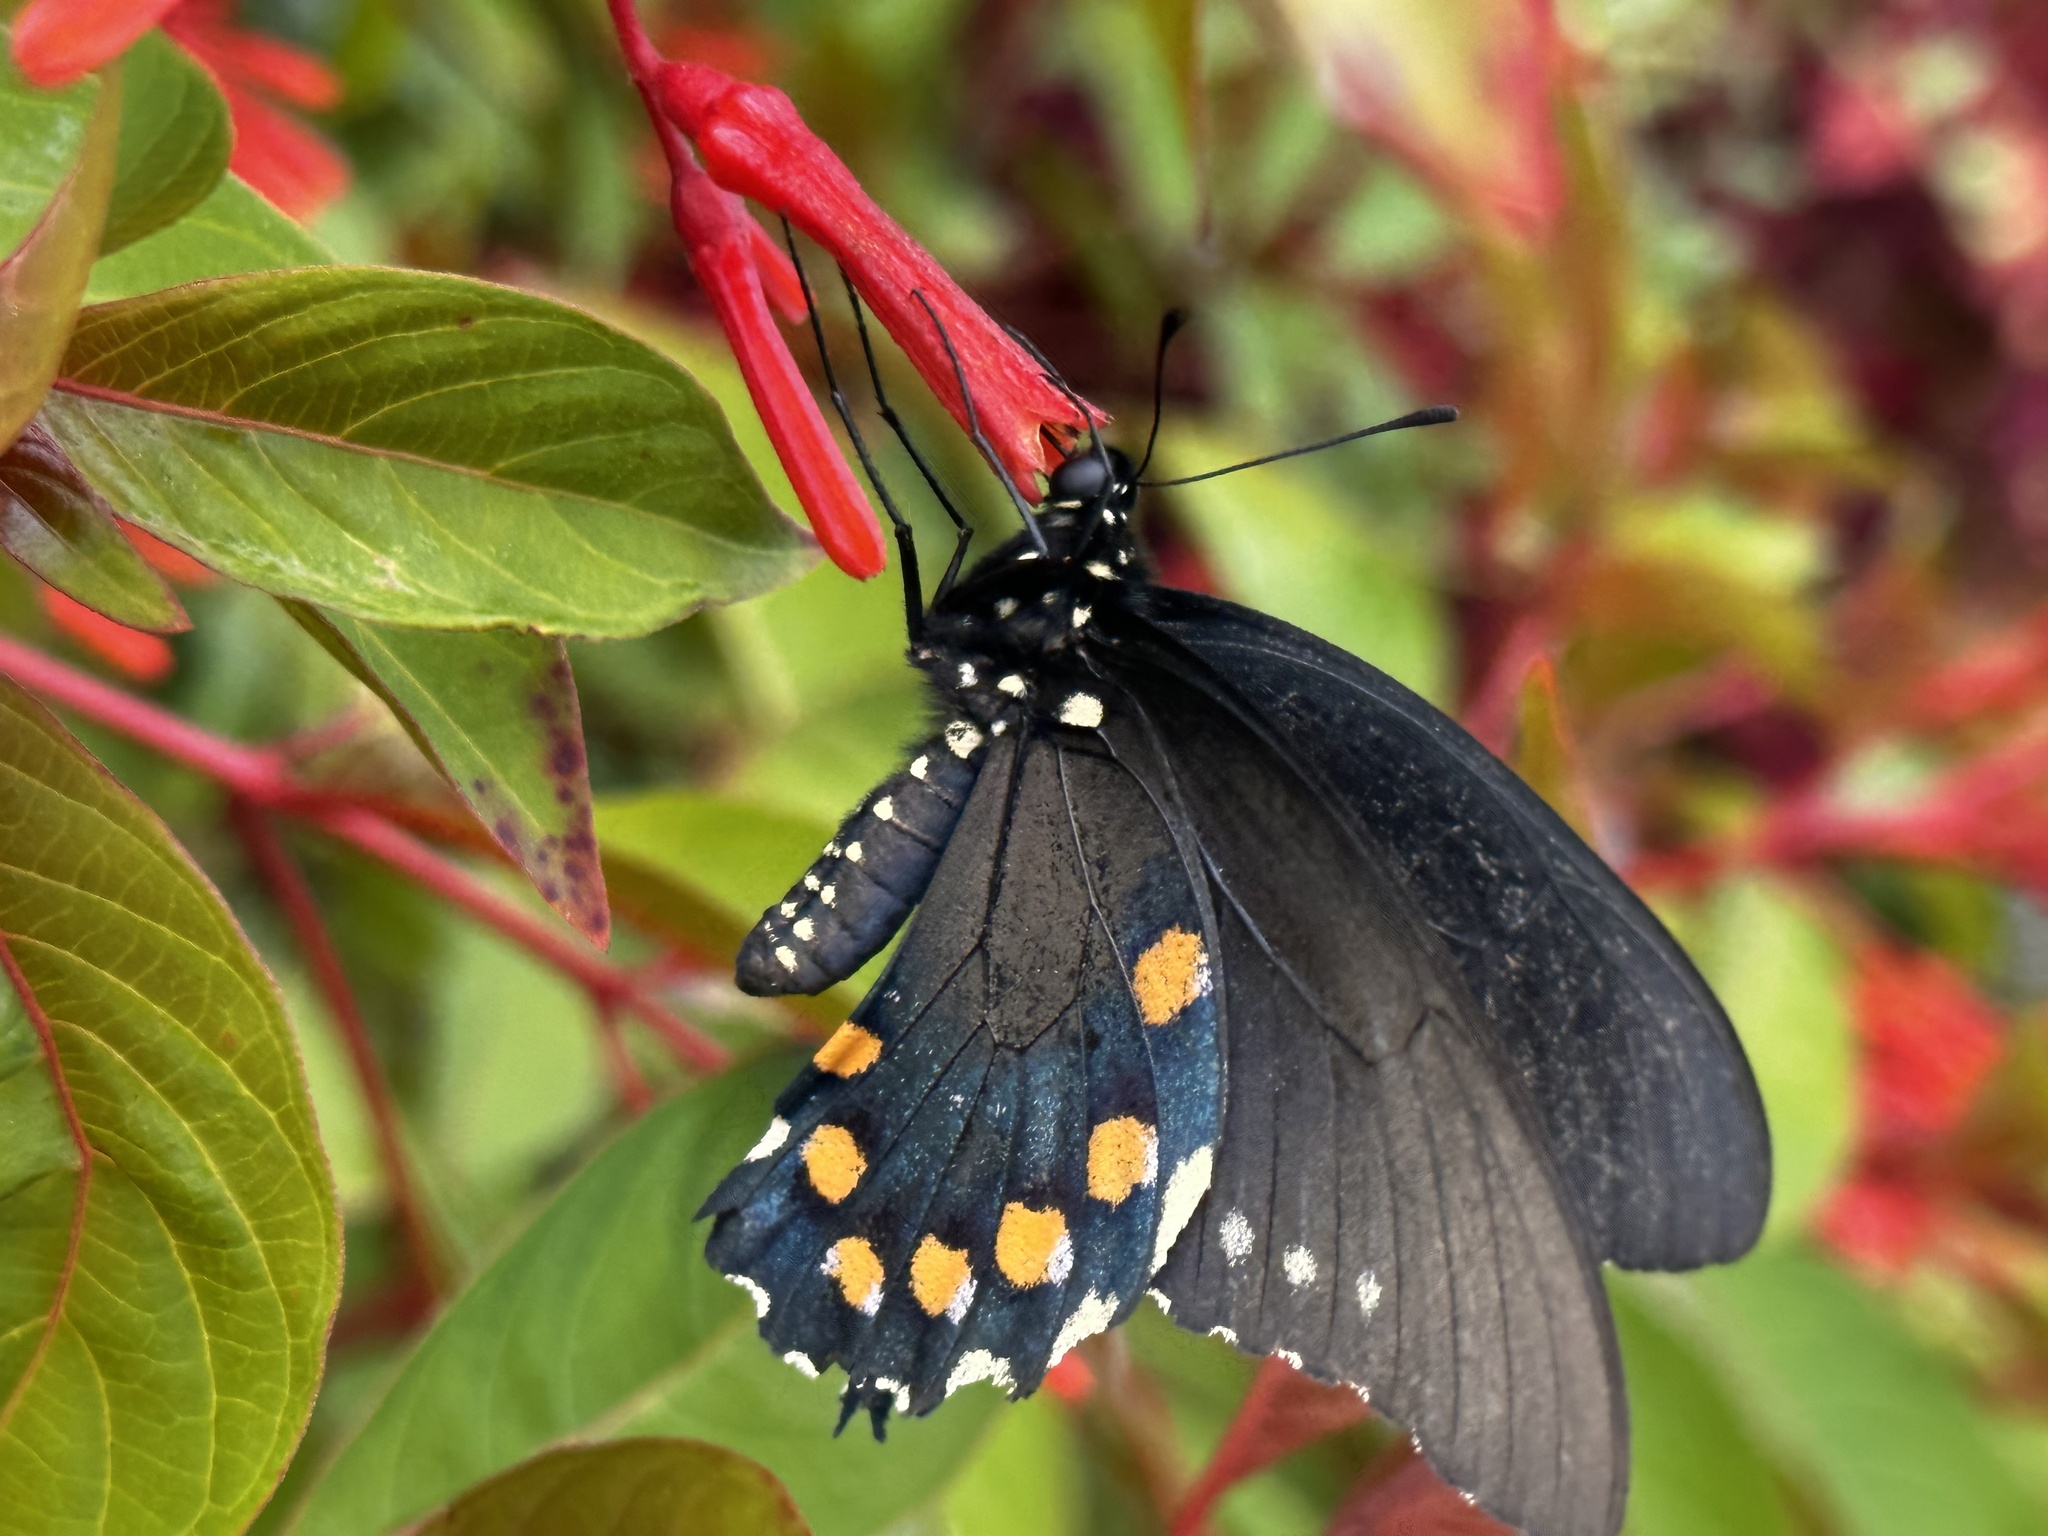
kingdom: Animalia
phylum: Arthropoda
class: Insecta
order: Lepidoptera
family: Papilionidae
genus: Battus
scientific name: Battus philenor
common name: Pipevine swallowtail
